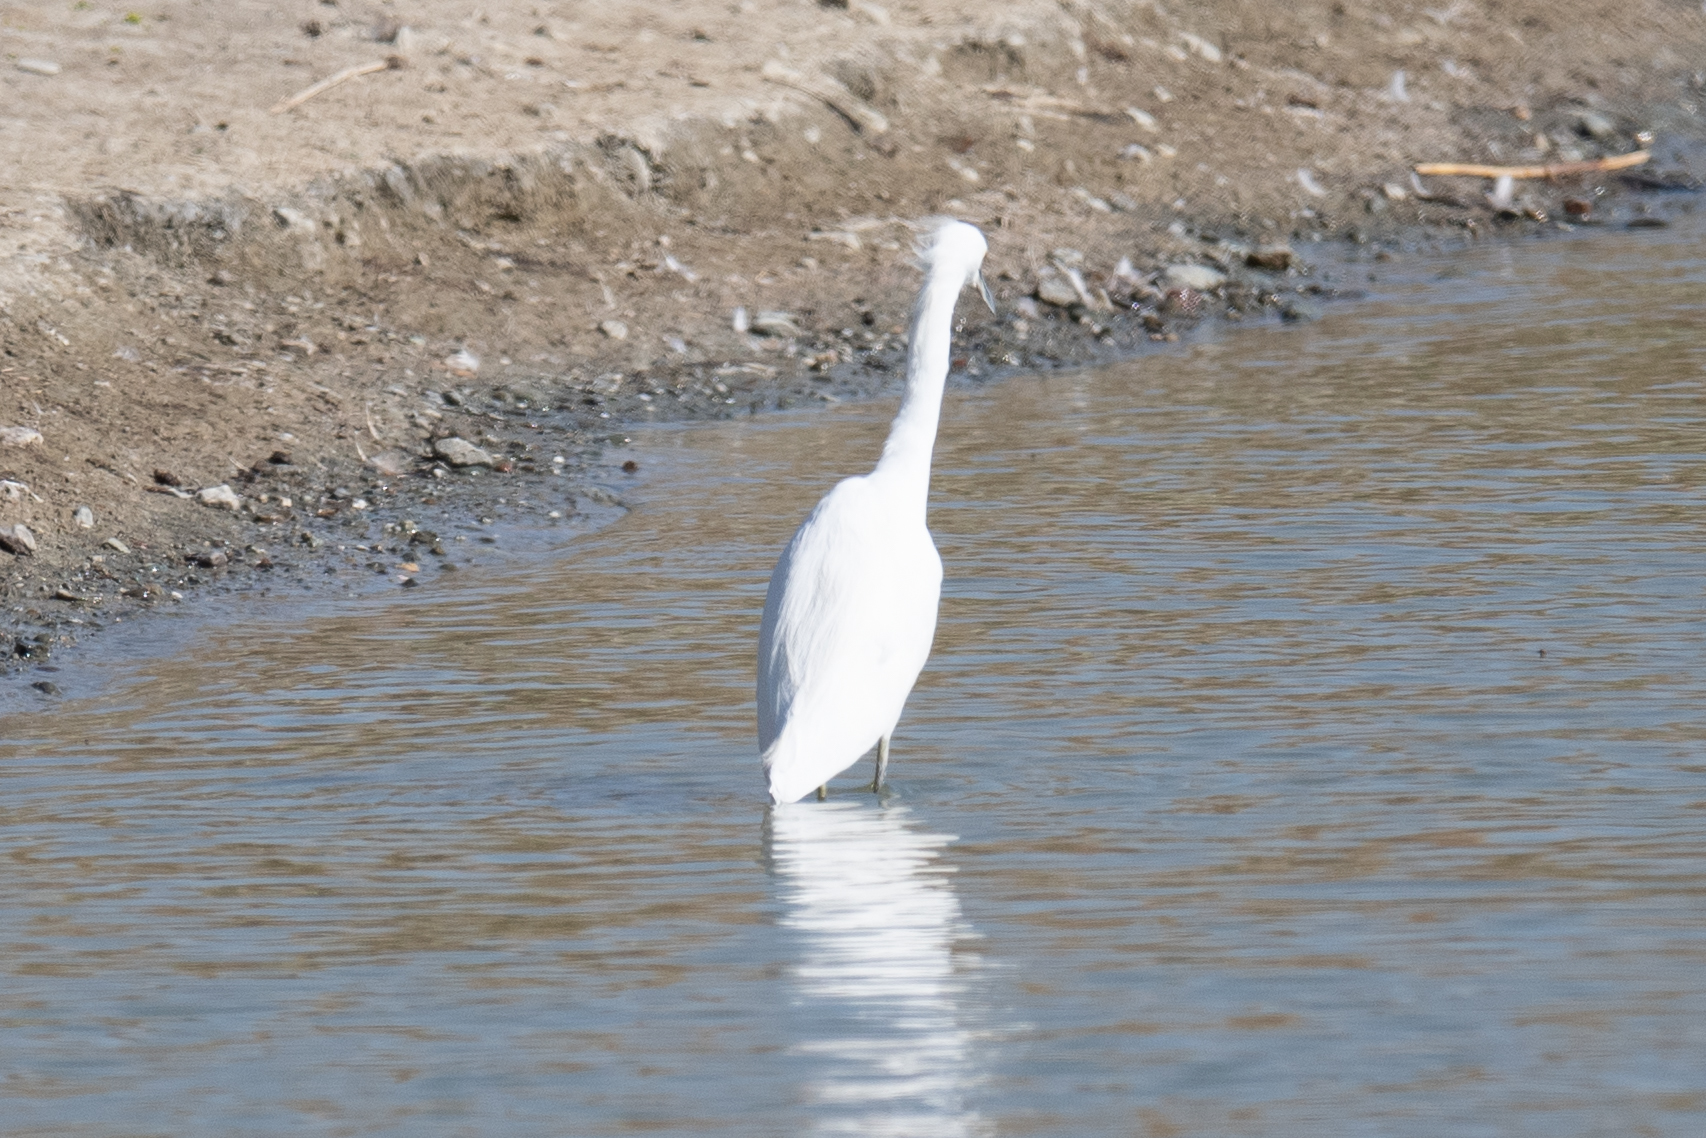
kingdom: Animalia
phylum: Chordata
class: Aves
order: Pelecaniformes
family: Ardeidae
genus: Egretta
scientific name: Egretta thula
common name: Snowy egret
